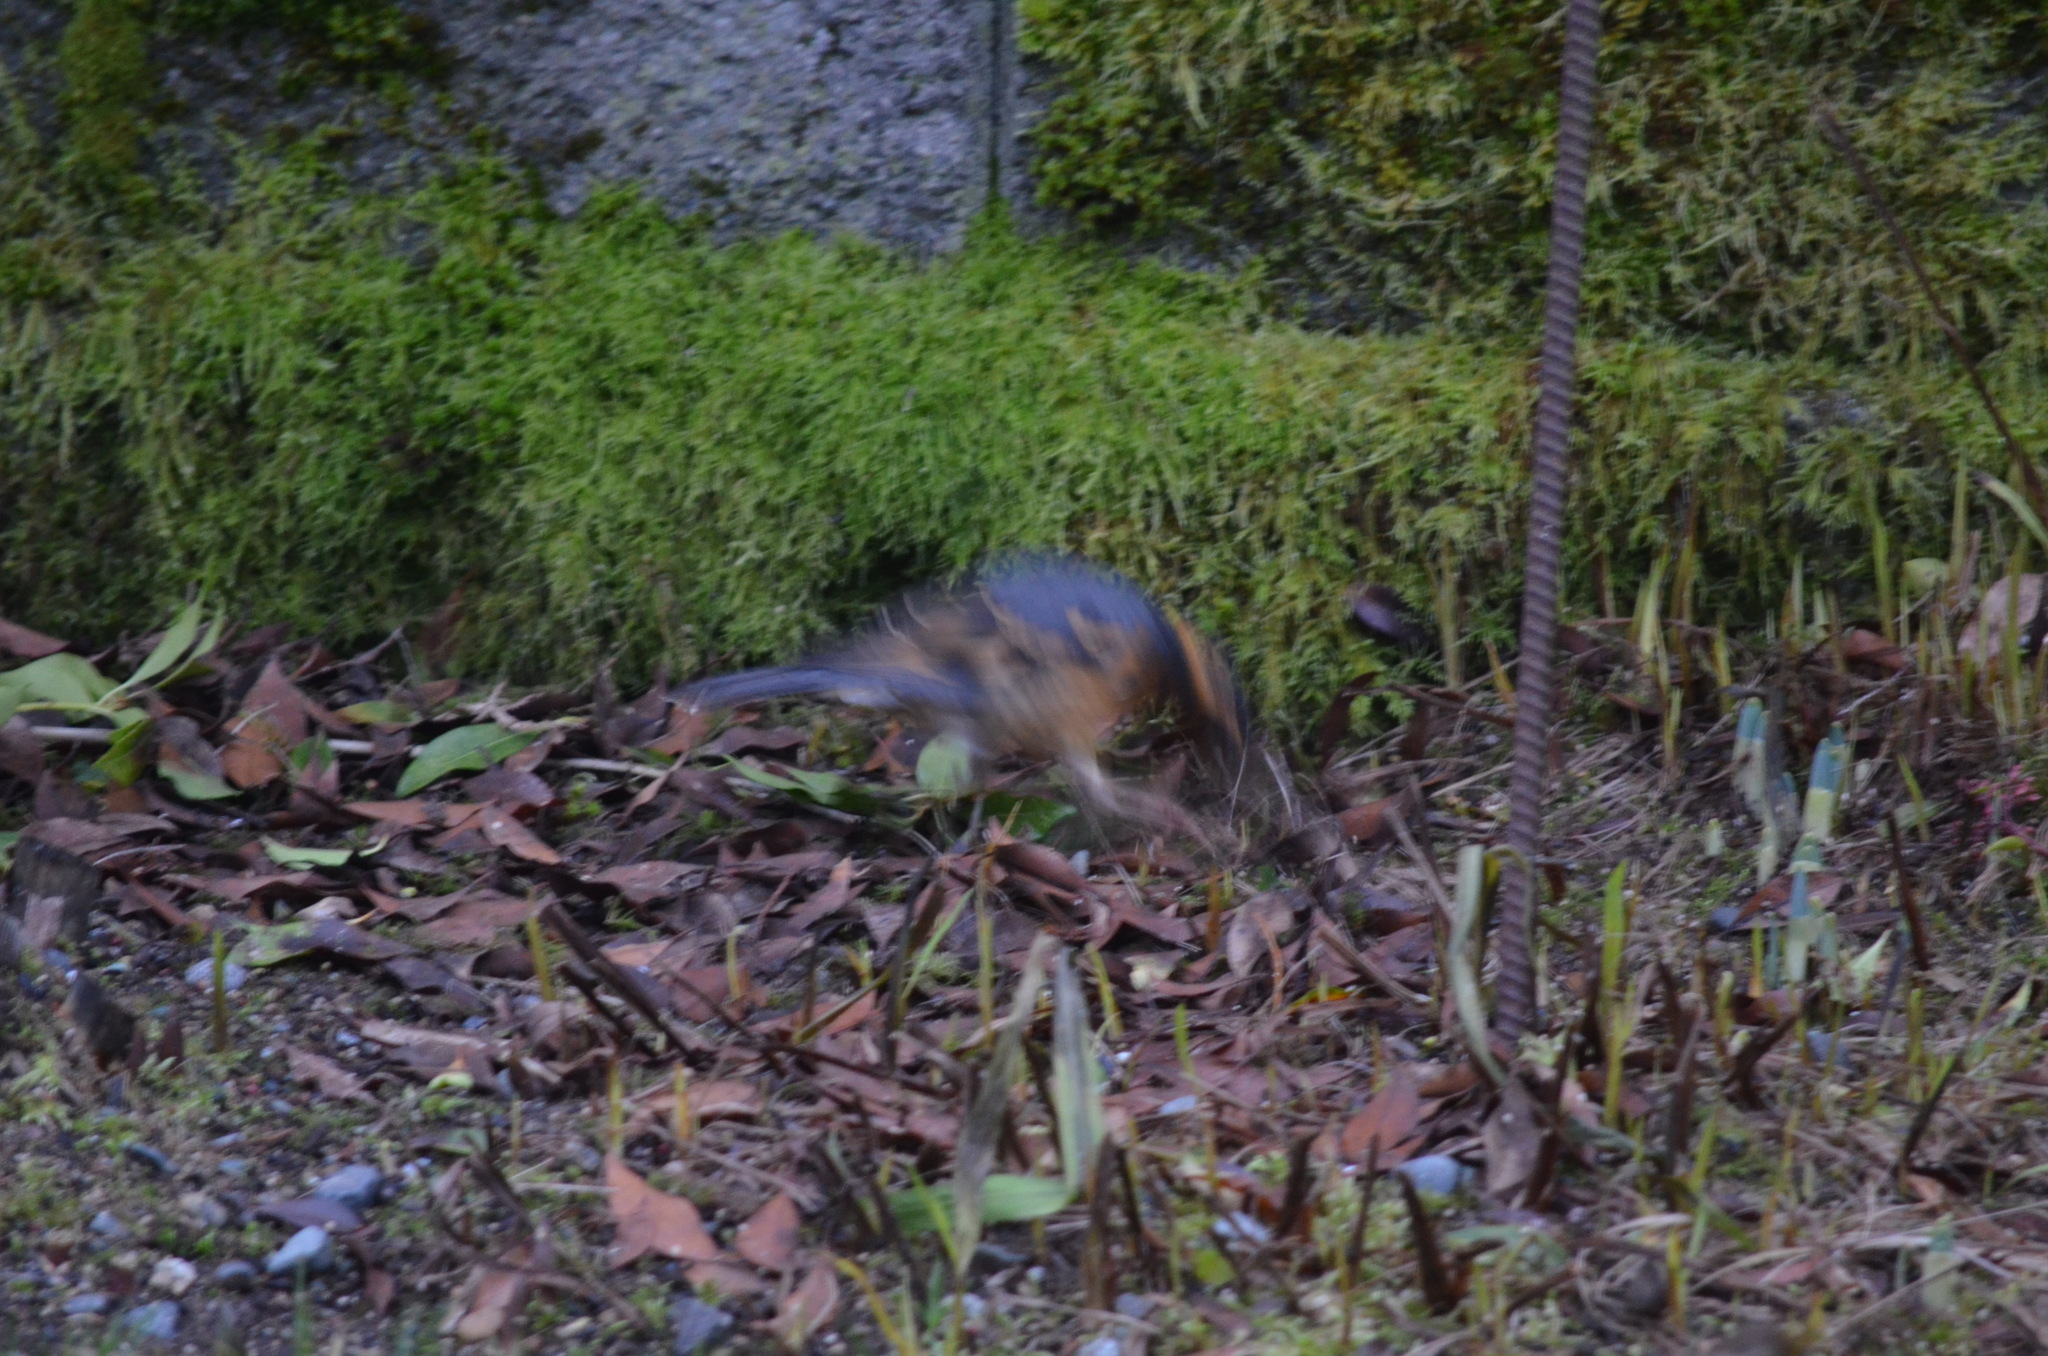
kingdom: Animalia
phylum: Chordata
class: Aves
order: Passeriformes
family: Turdidae
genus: Ixoreus
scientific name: Ixoreus naevius
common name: Varied thrush
